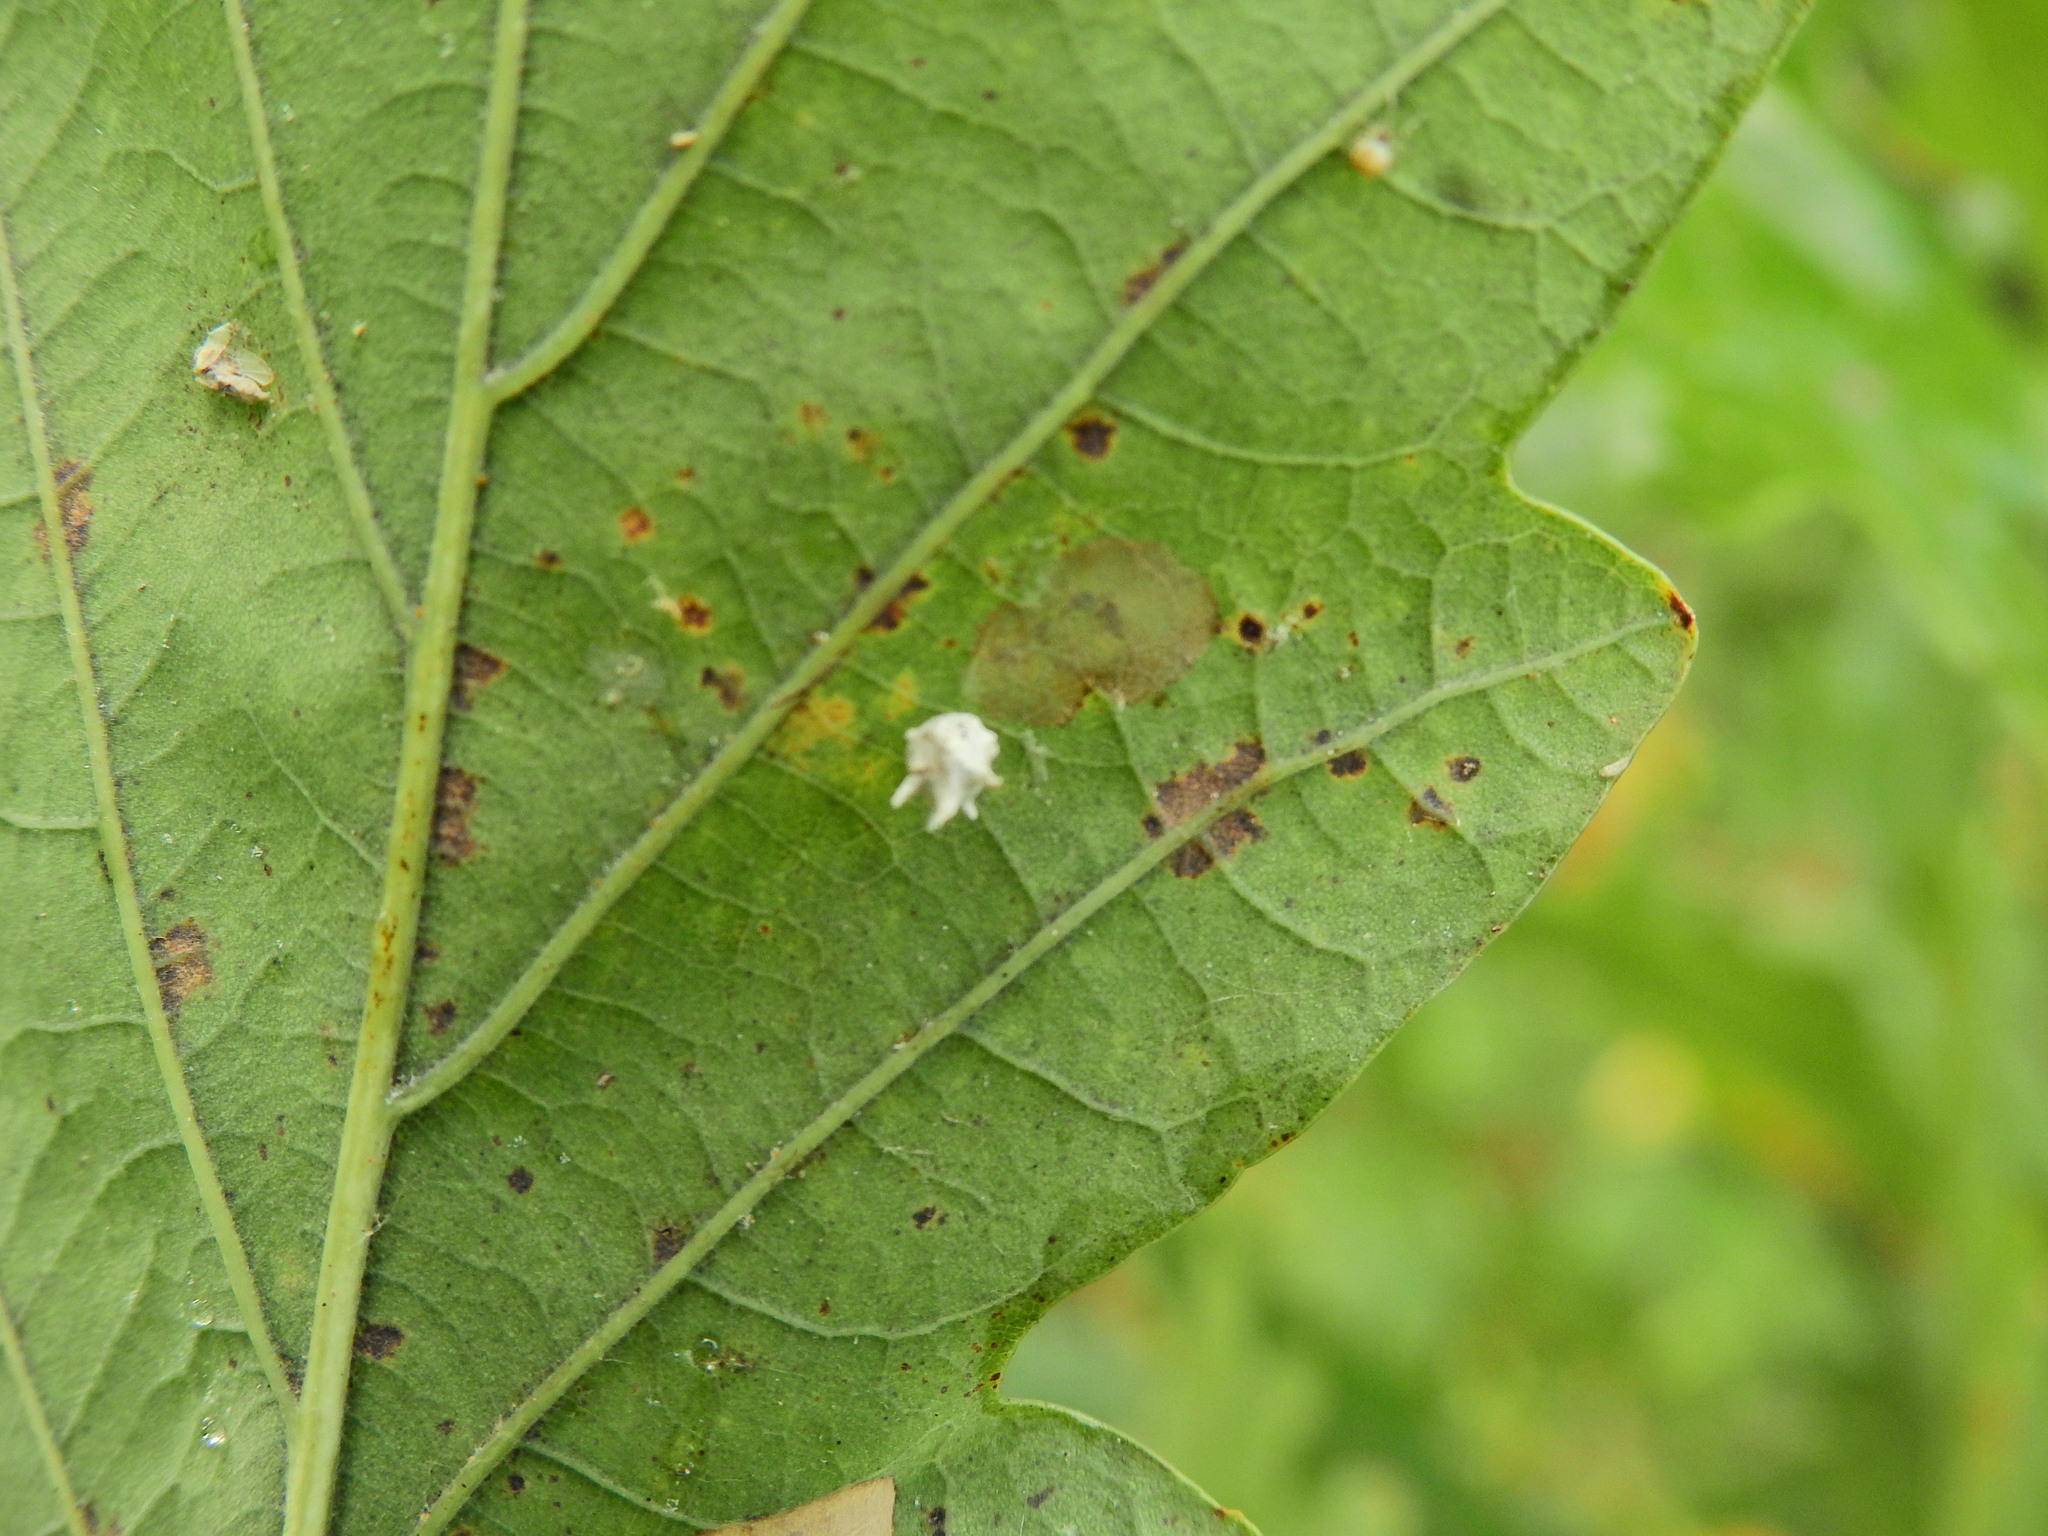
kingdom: Animalia
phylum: Arthropoda
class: Arachnida
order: Araneae
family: Theridiidae
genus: Paidiscura
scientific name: Paidiscura pallens
